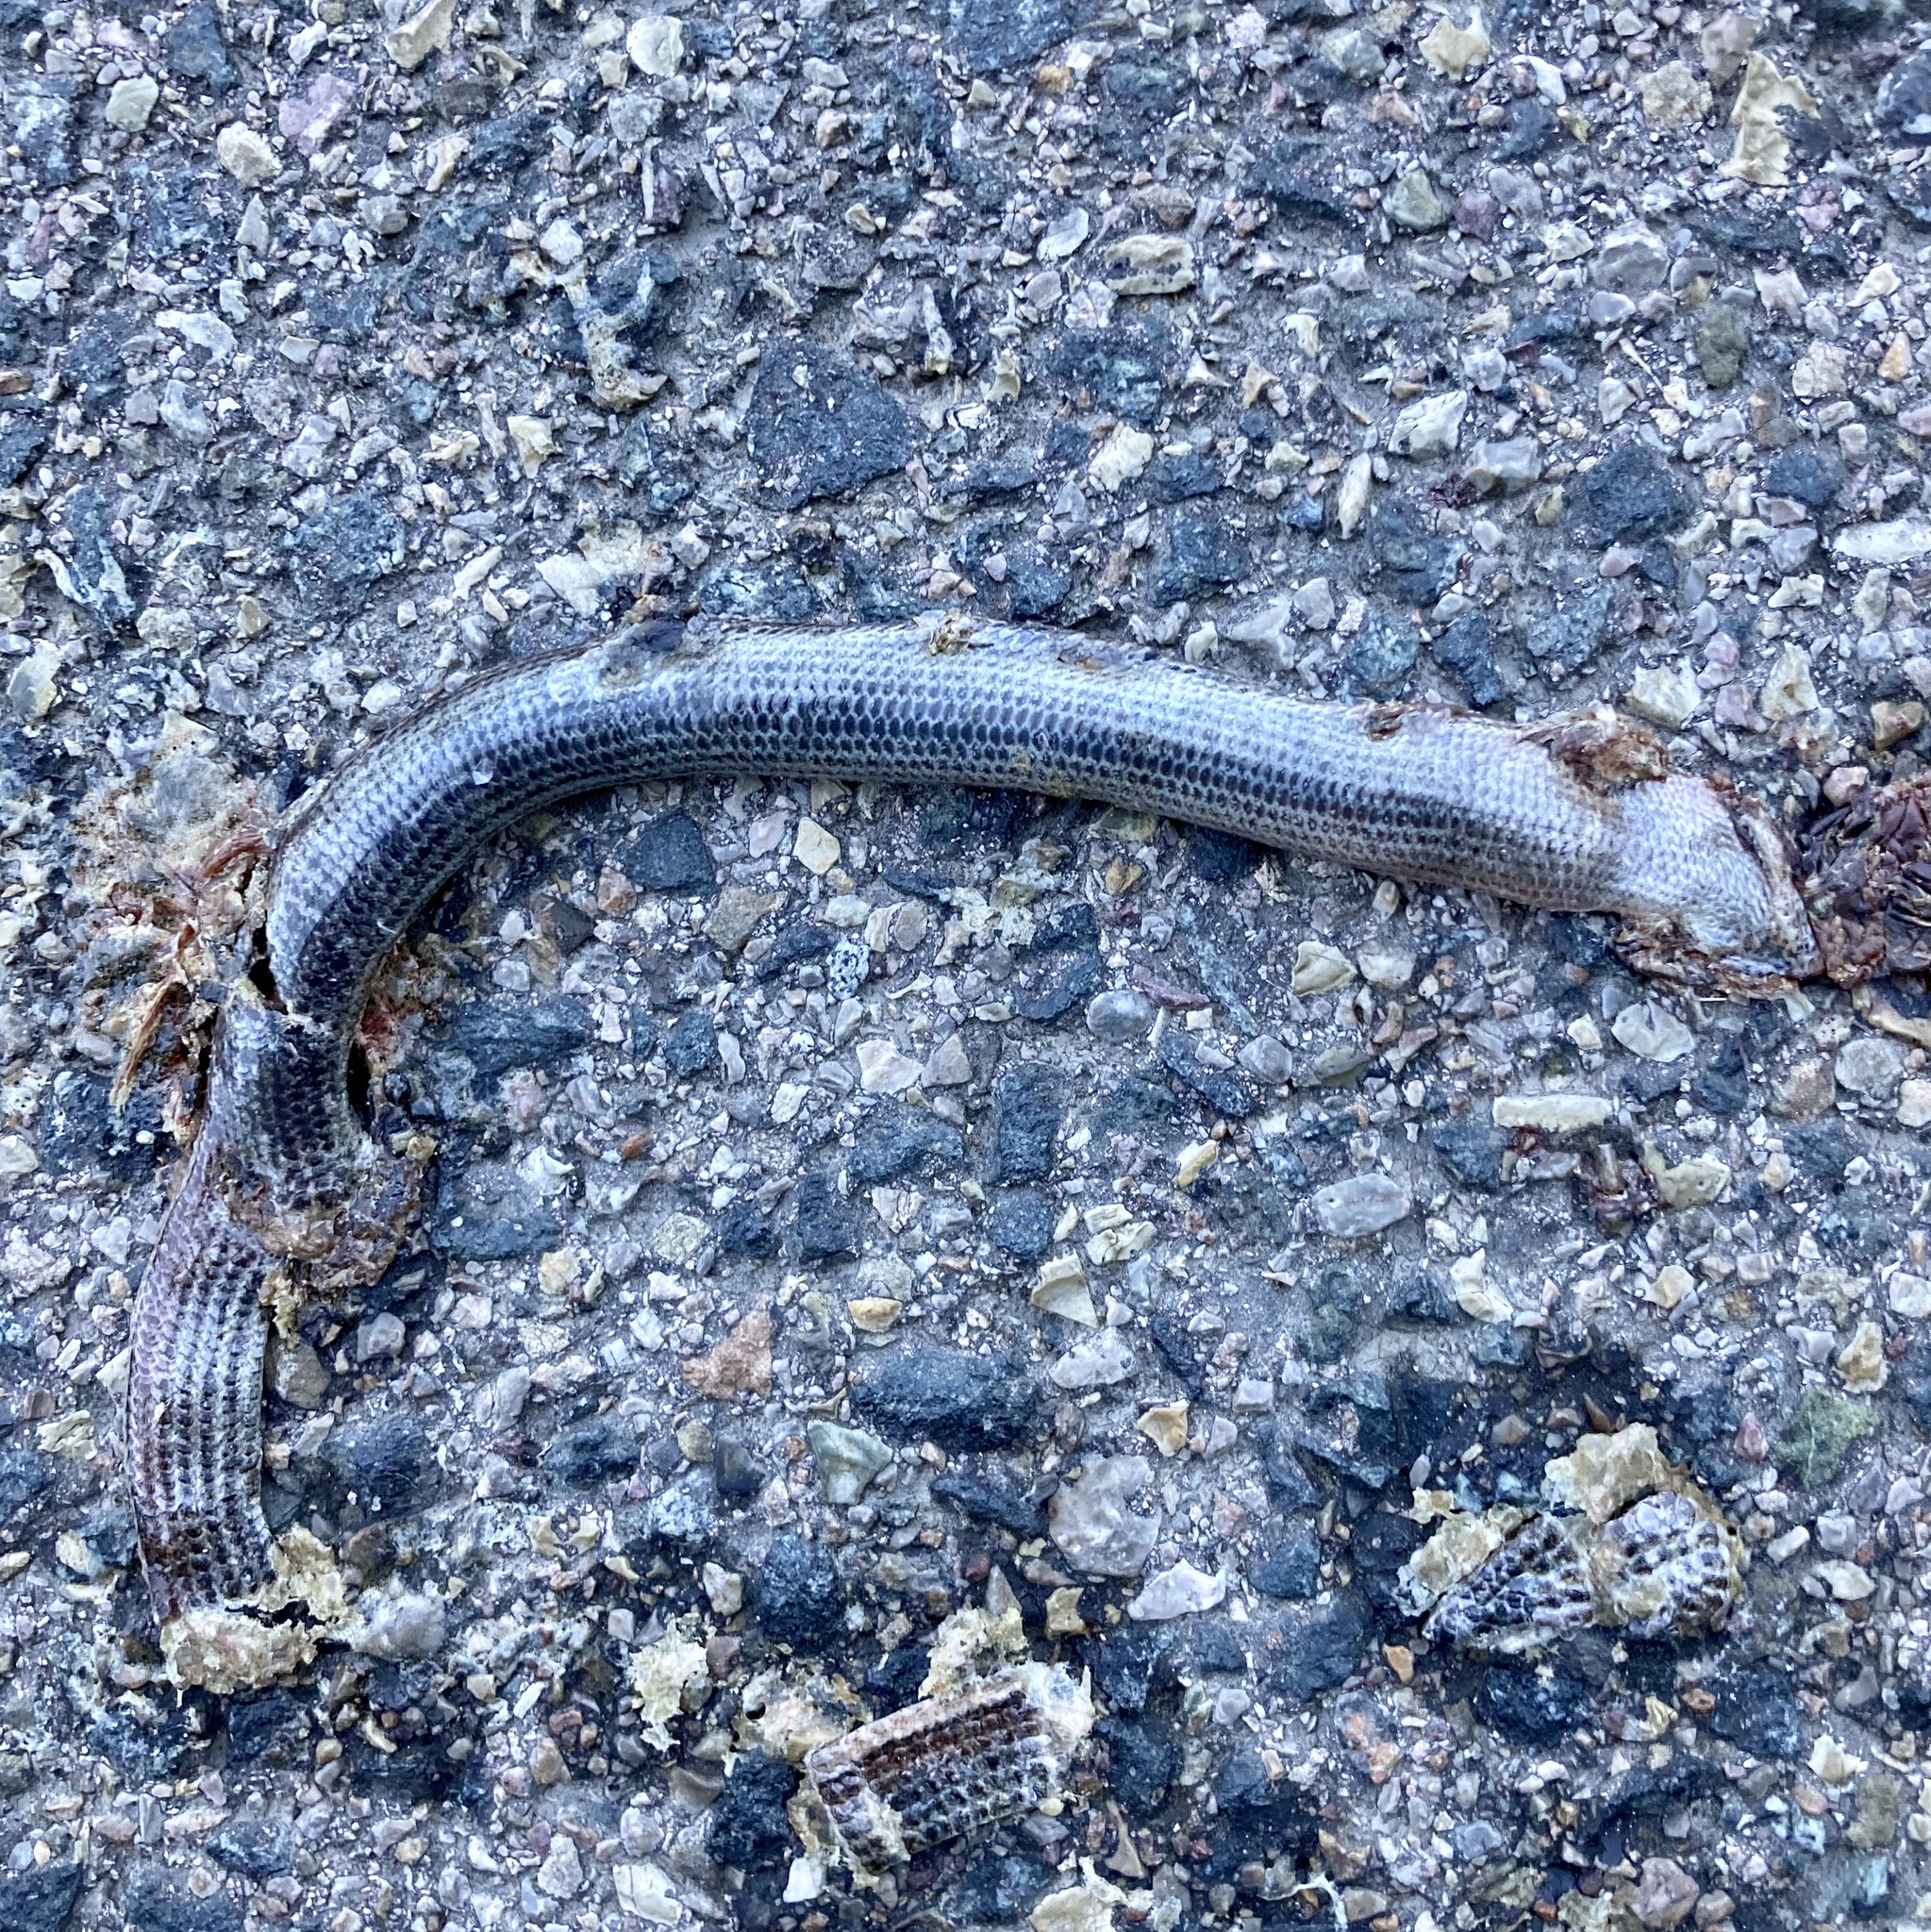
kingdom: Animalia
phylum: Chordata
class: Squamata
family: Anguidae
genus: Anguis
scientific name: Anguis veronensis
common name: Italian slow worm
